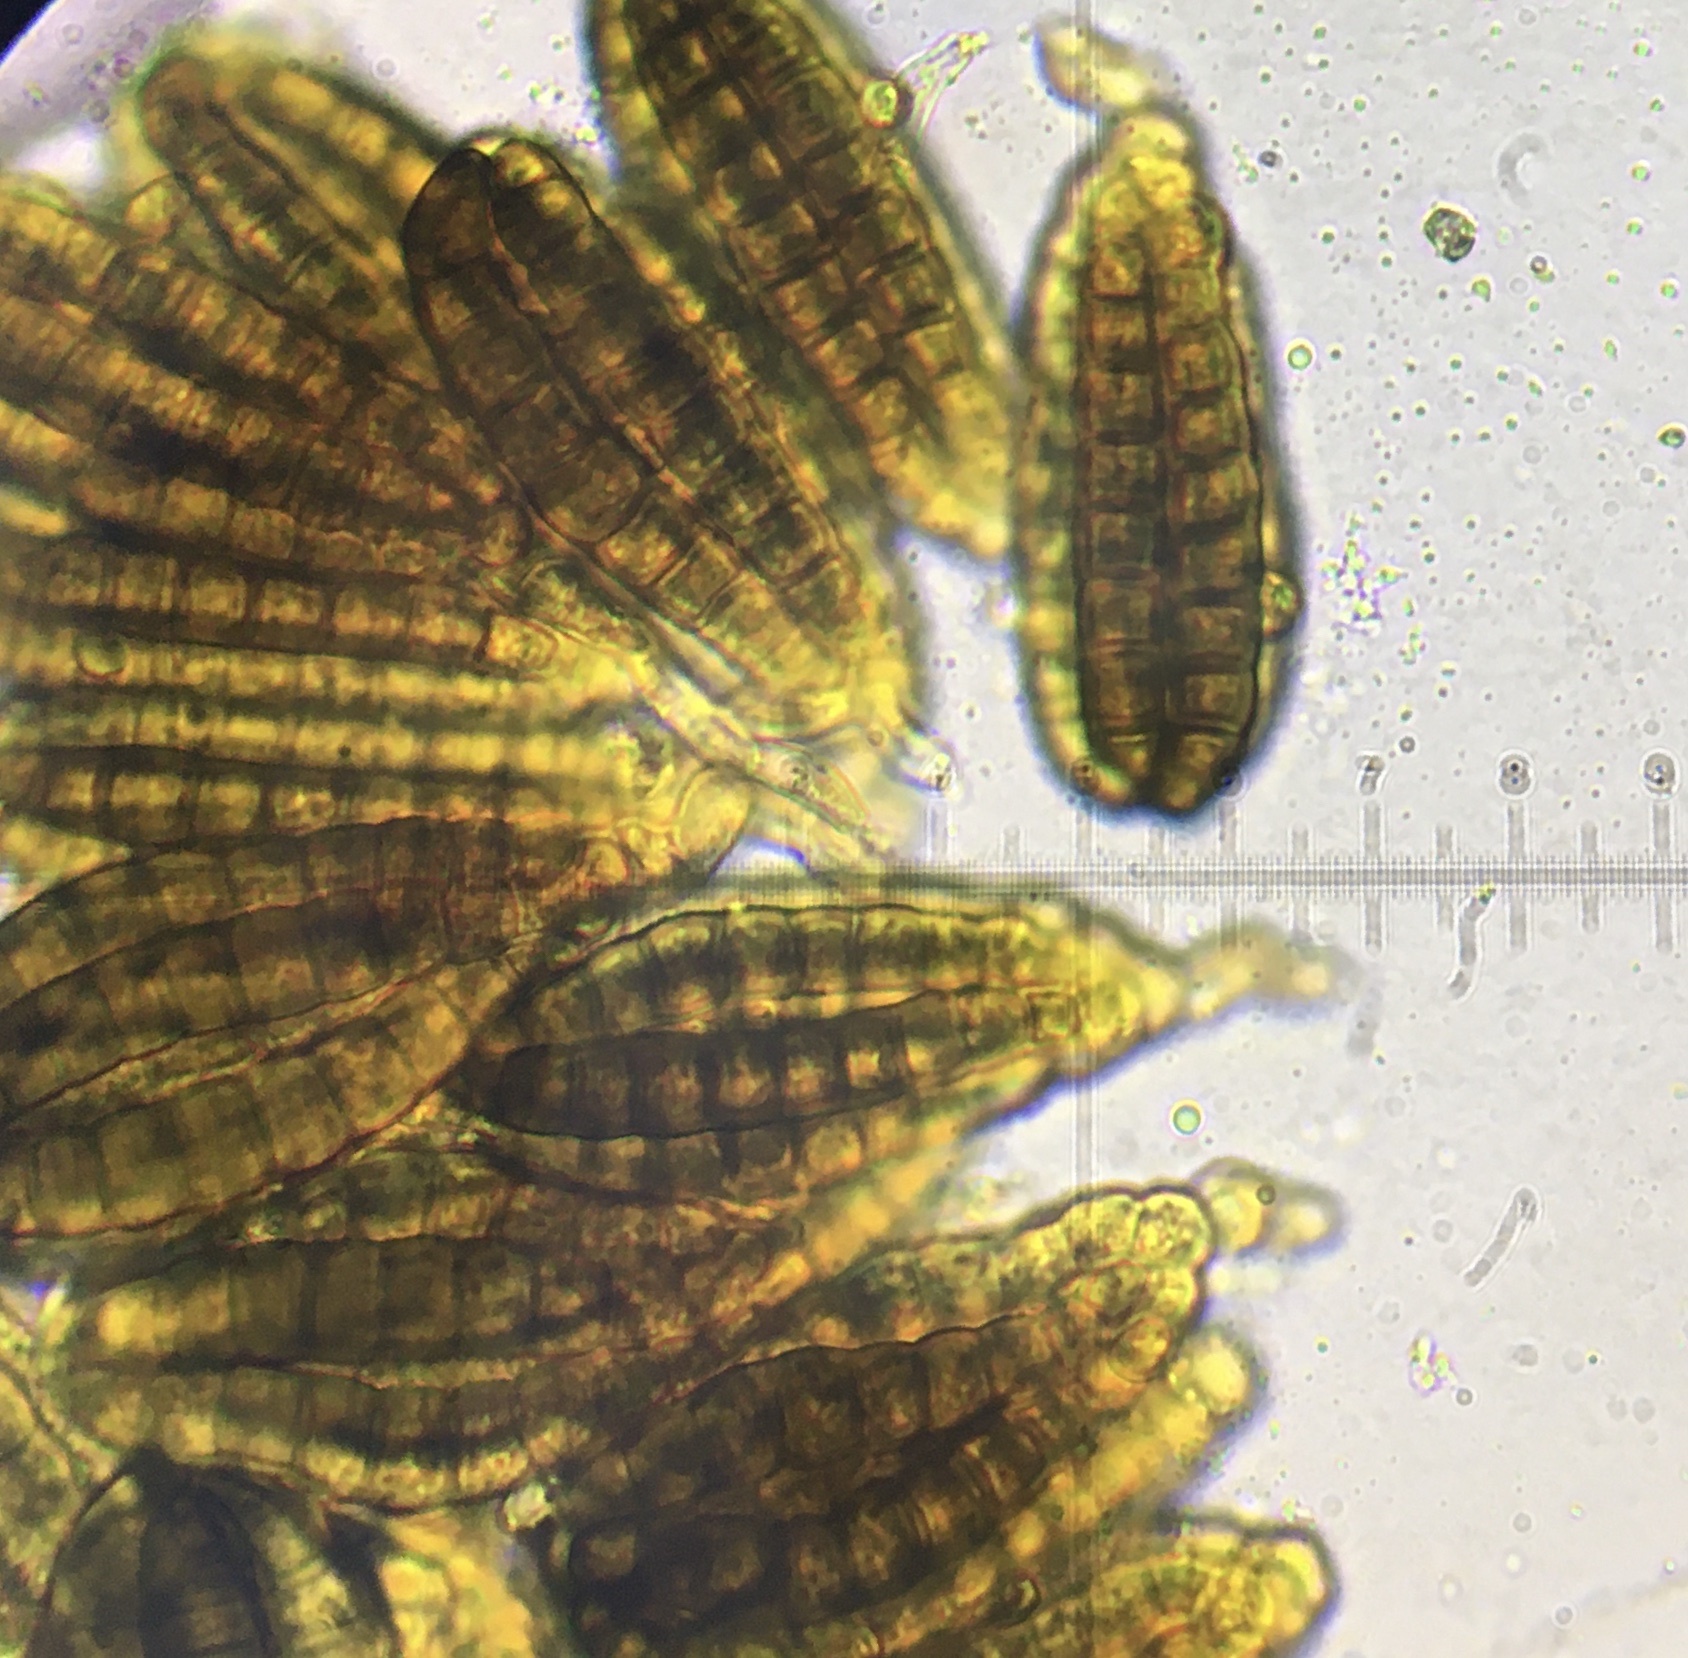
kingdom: Fungi
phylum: Ascomycota
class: Dothideomycetes
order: Pleosporales
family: Dictyosporiaceae
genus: Dictyosporium
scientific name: Dictyosporium elegans
